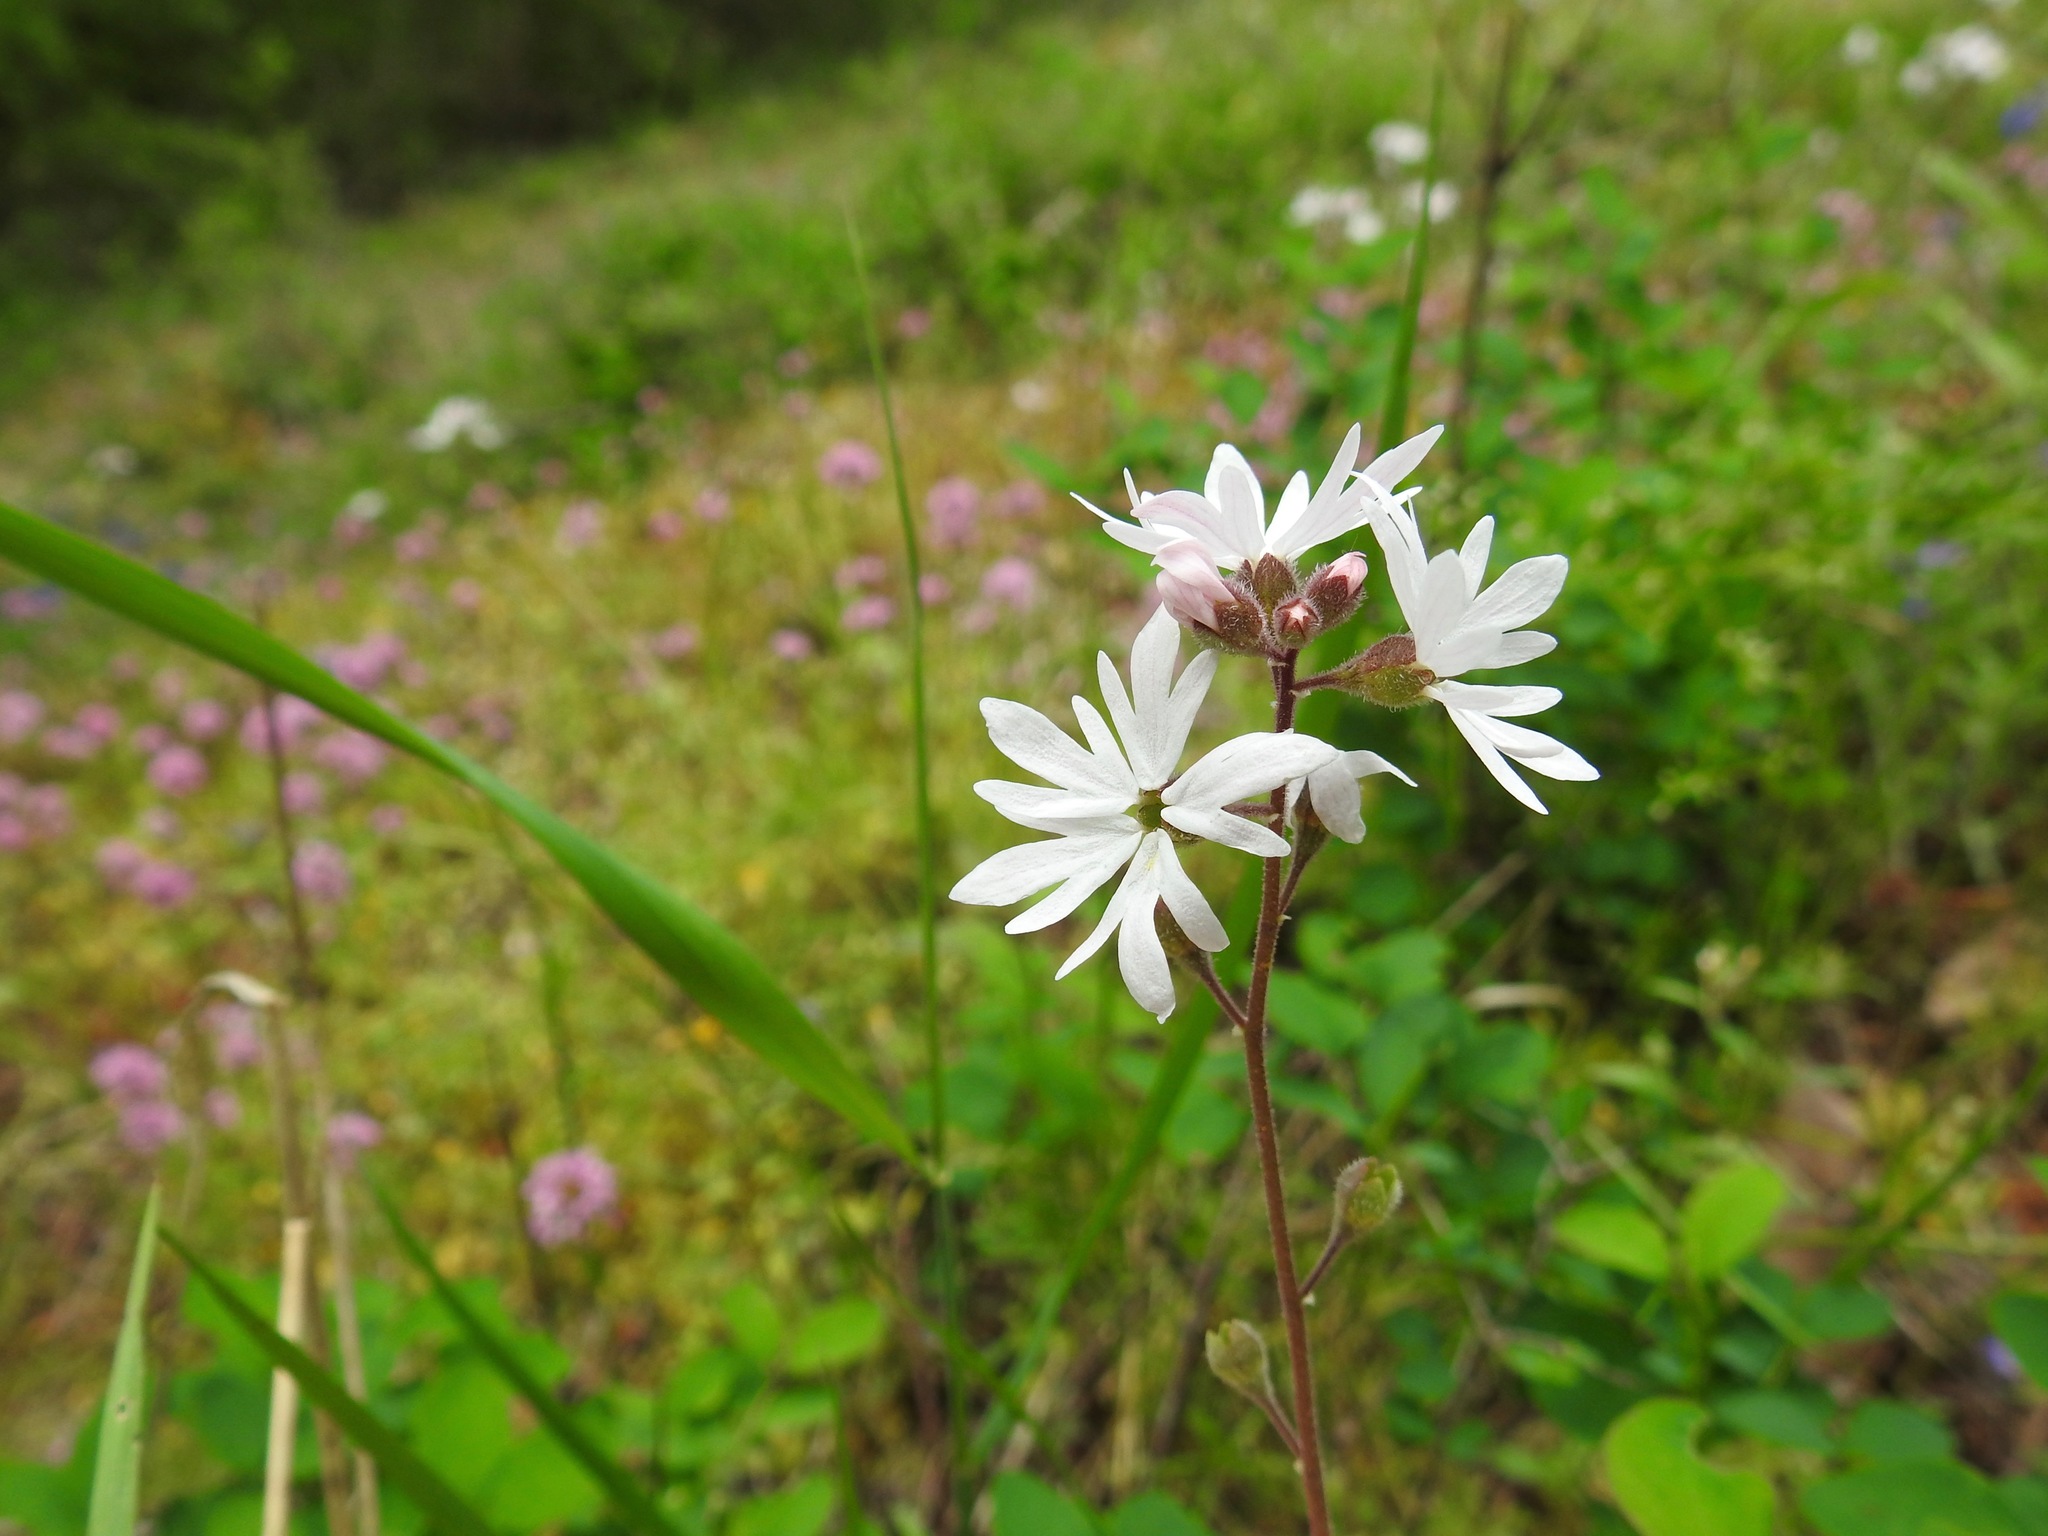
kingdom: Plantae
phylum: Tracheophyta
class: Magnoliopsida
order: Saxifragales
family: Saxifragaceae
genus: Lithophragma
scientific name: Lithophragma parviflorum
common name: Small-flowered fringe-cup
